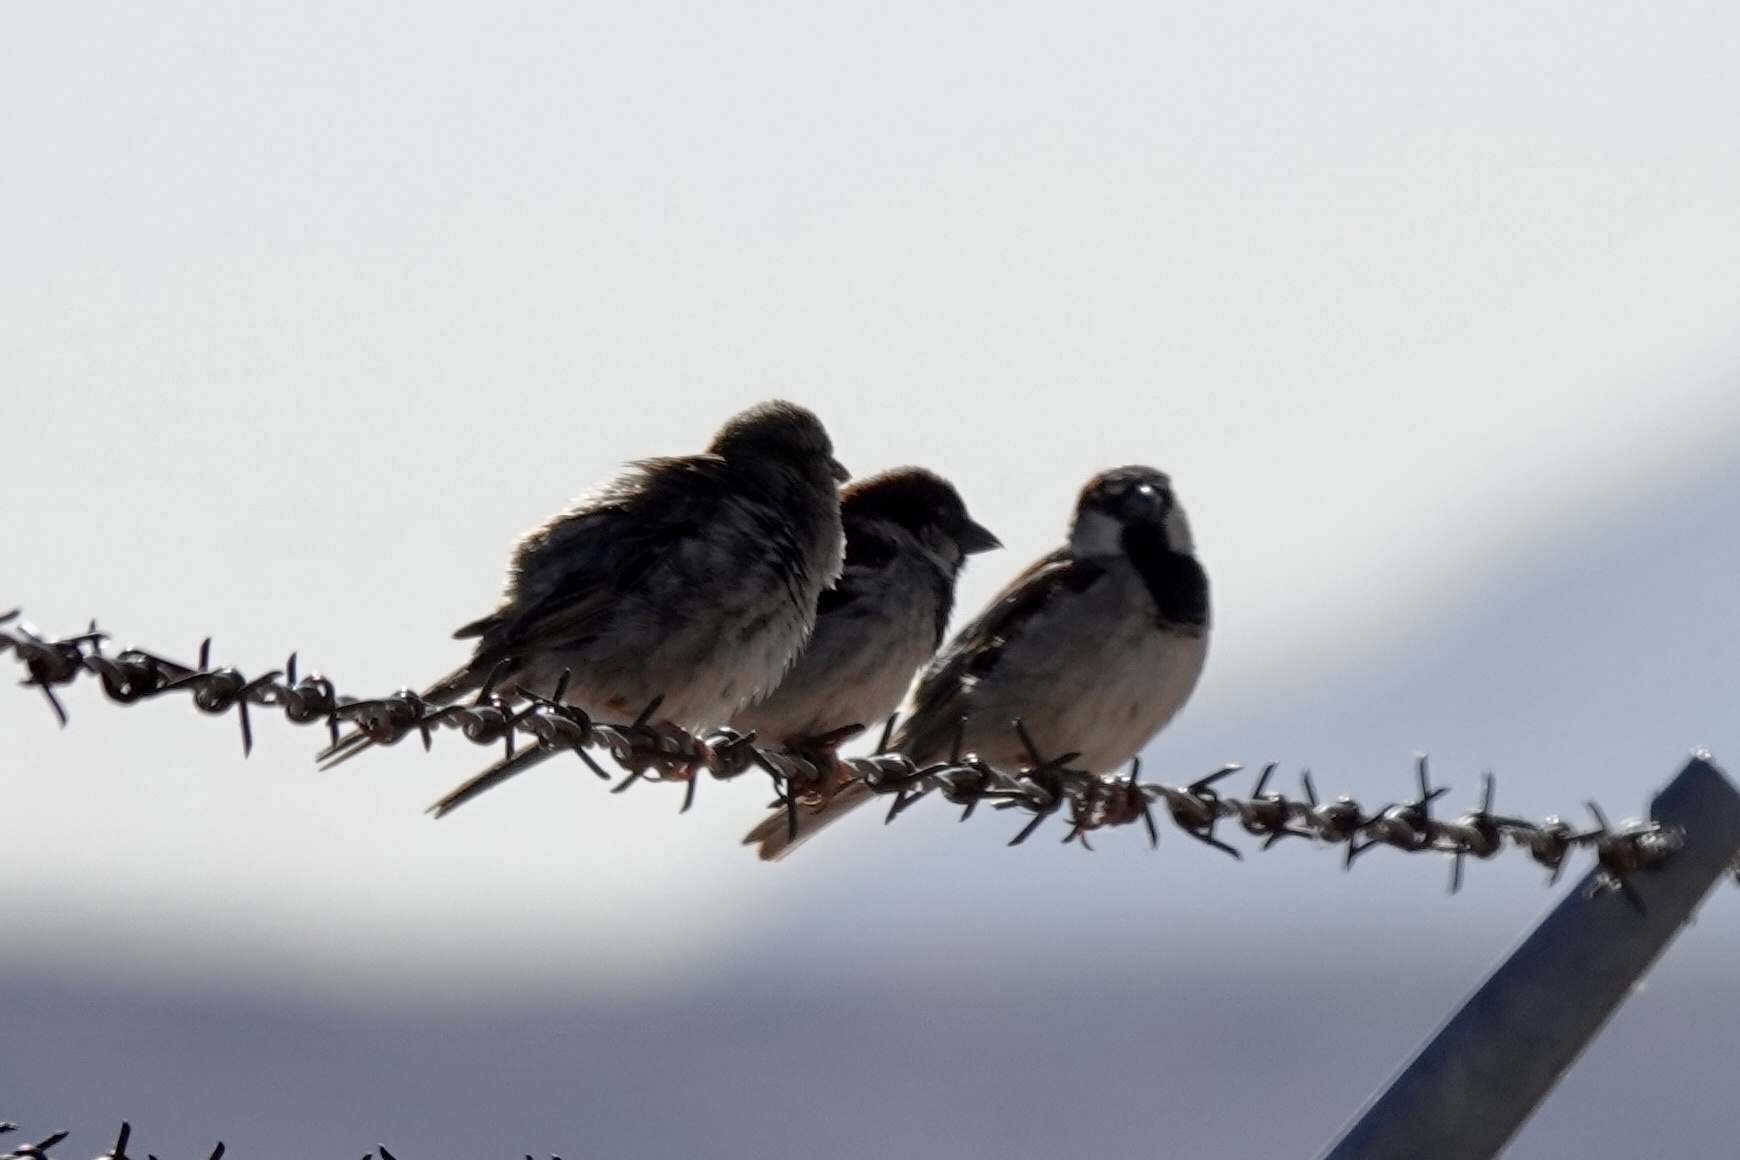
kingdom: Animalia
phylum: Chordata
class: Aves
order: Passeriformes
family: Passeridae
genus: Passer
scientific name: Passer domesticus
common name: House sparrow
